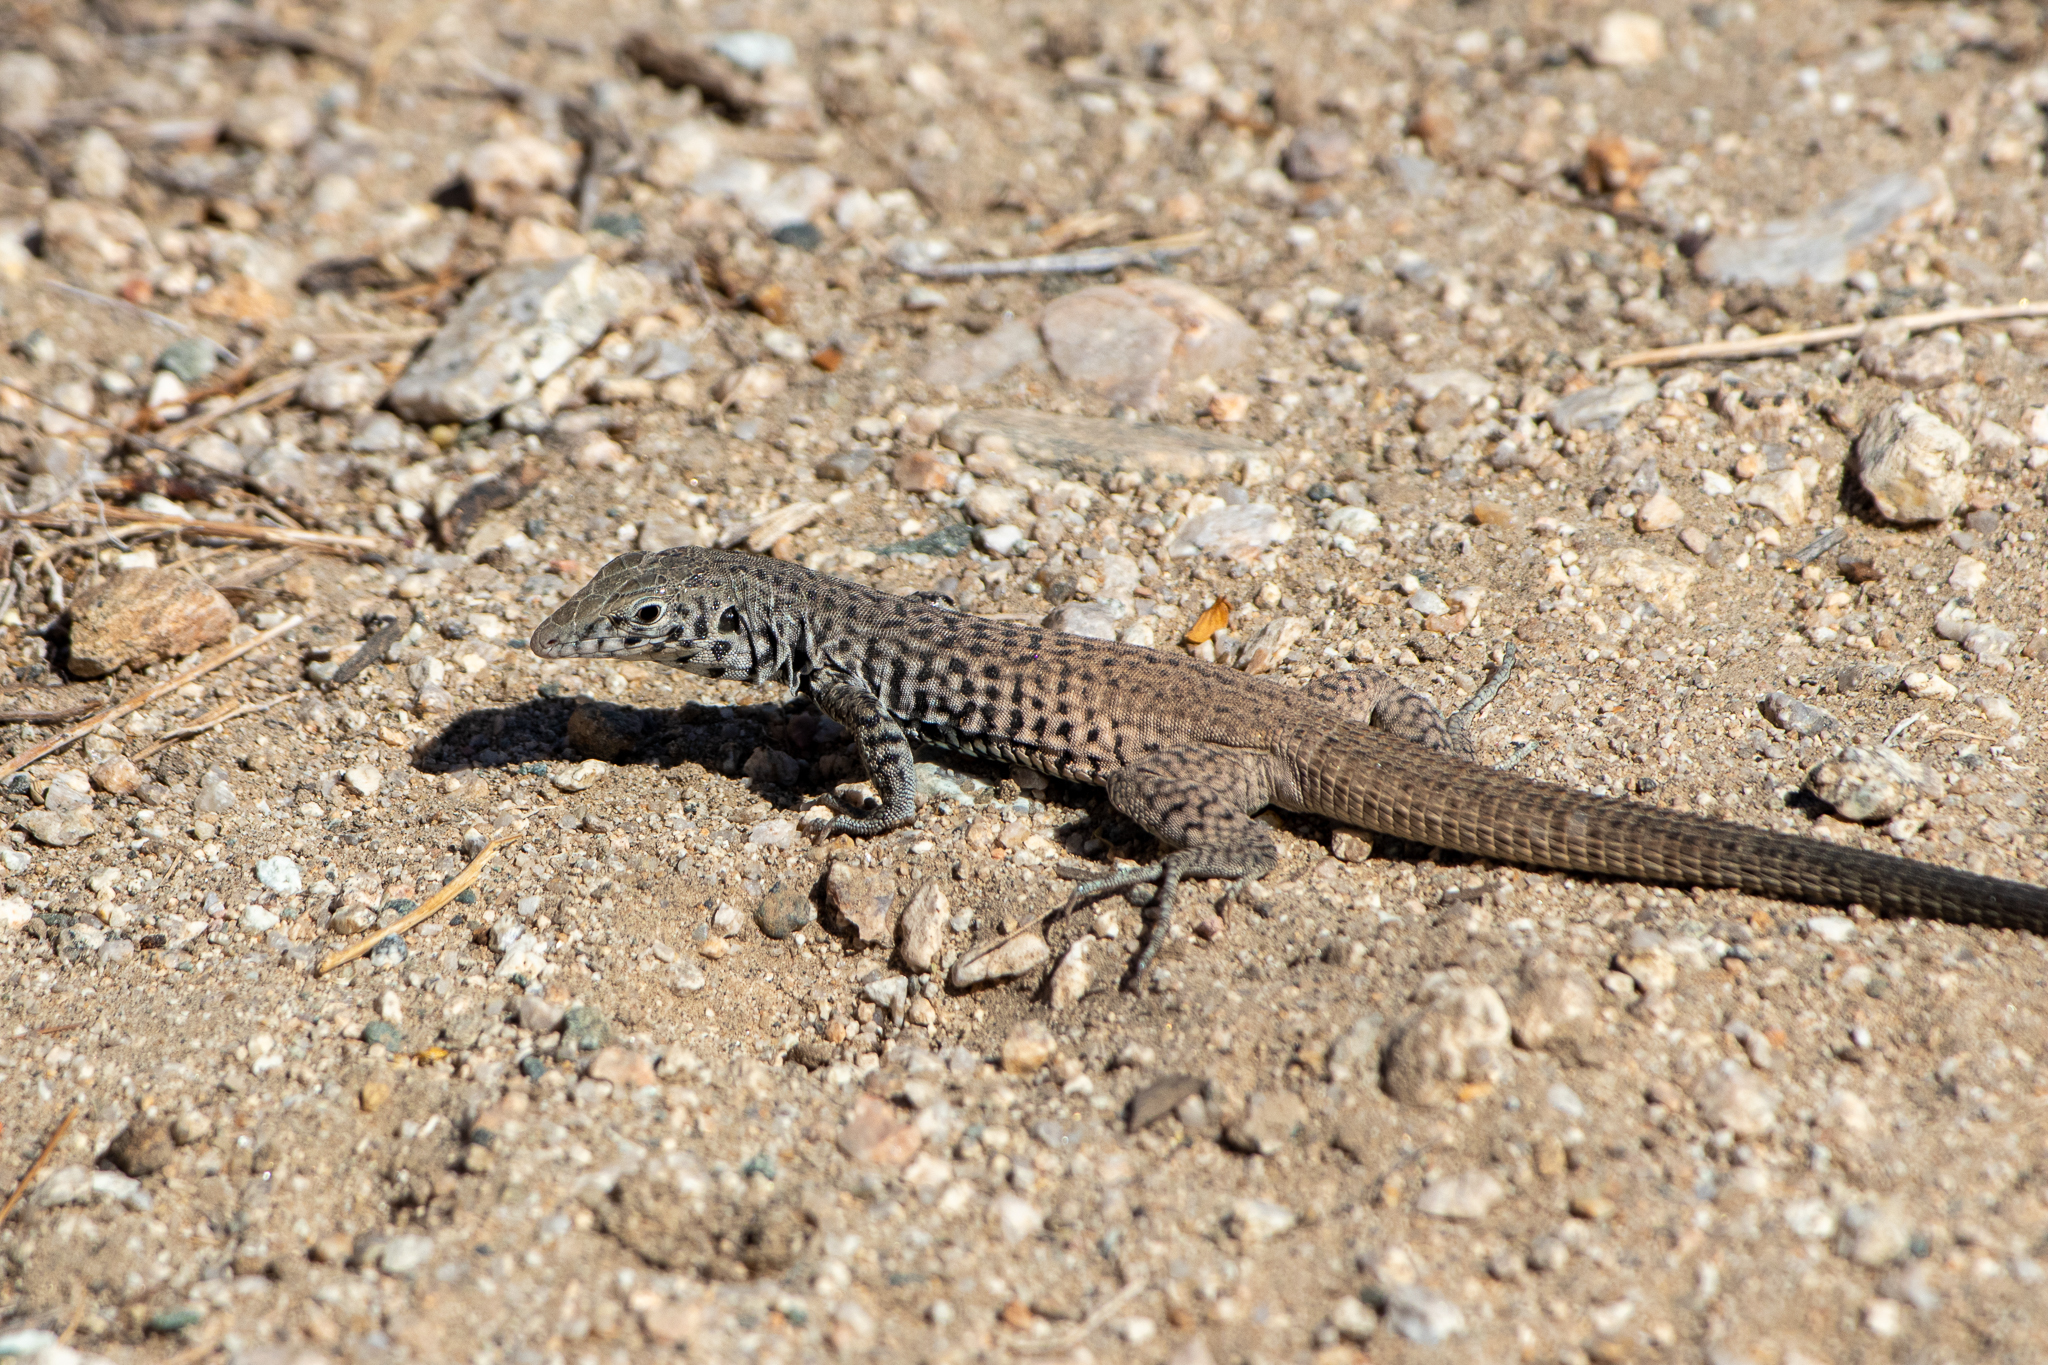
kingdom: Animalia
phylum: Chordata
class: Squamata
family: Teiidae
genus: Aspidoscelis
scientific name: Aspidoscelis tigris
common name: Tiger whiptail
